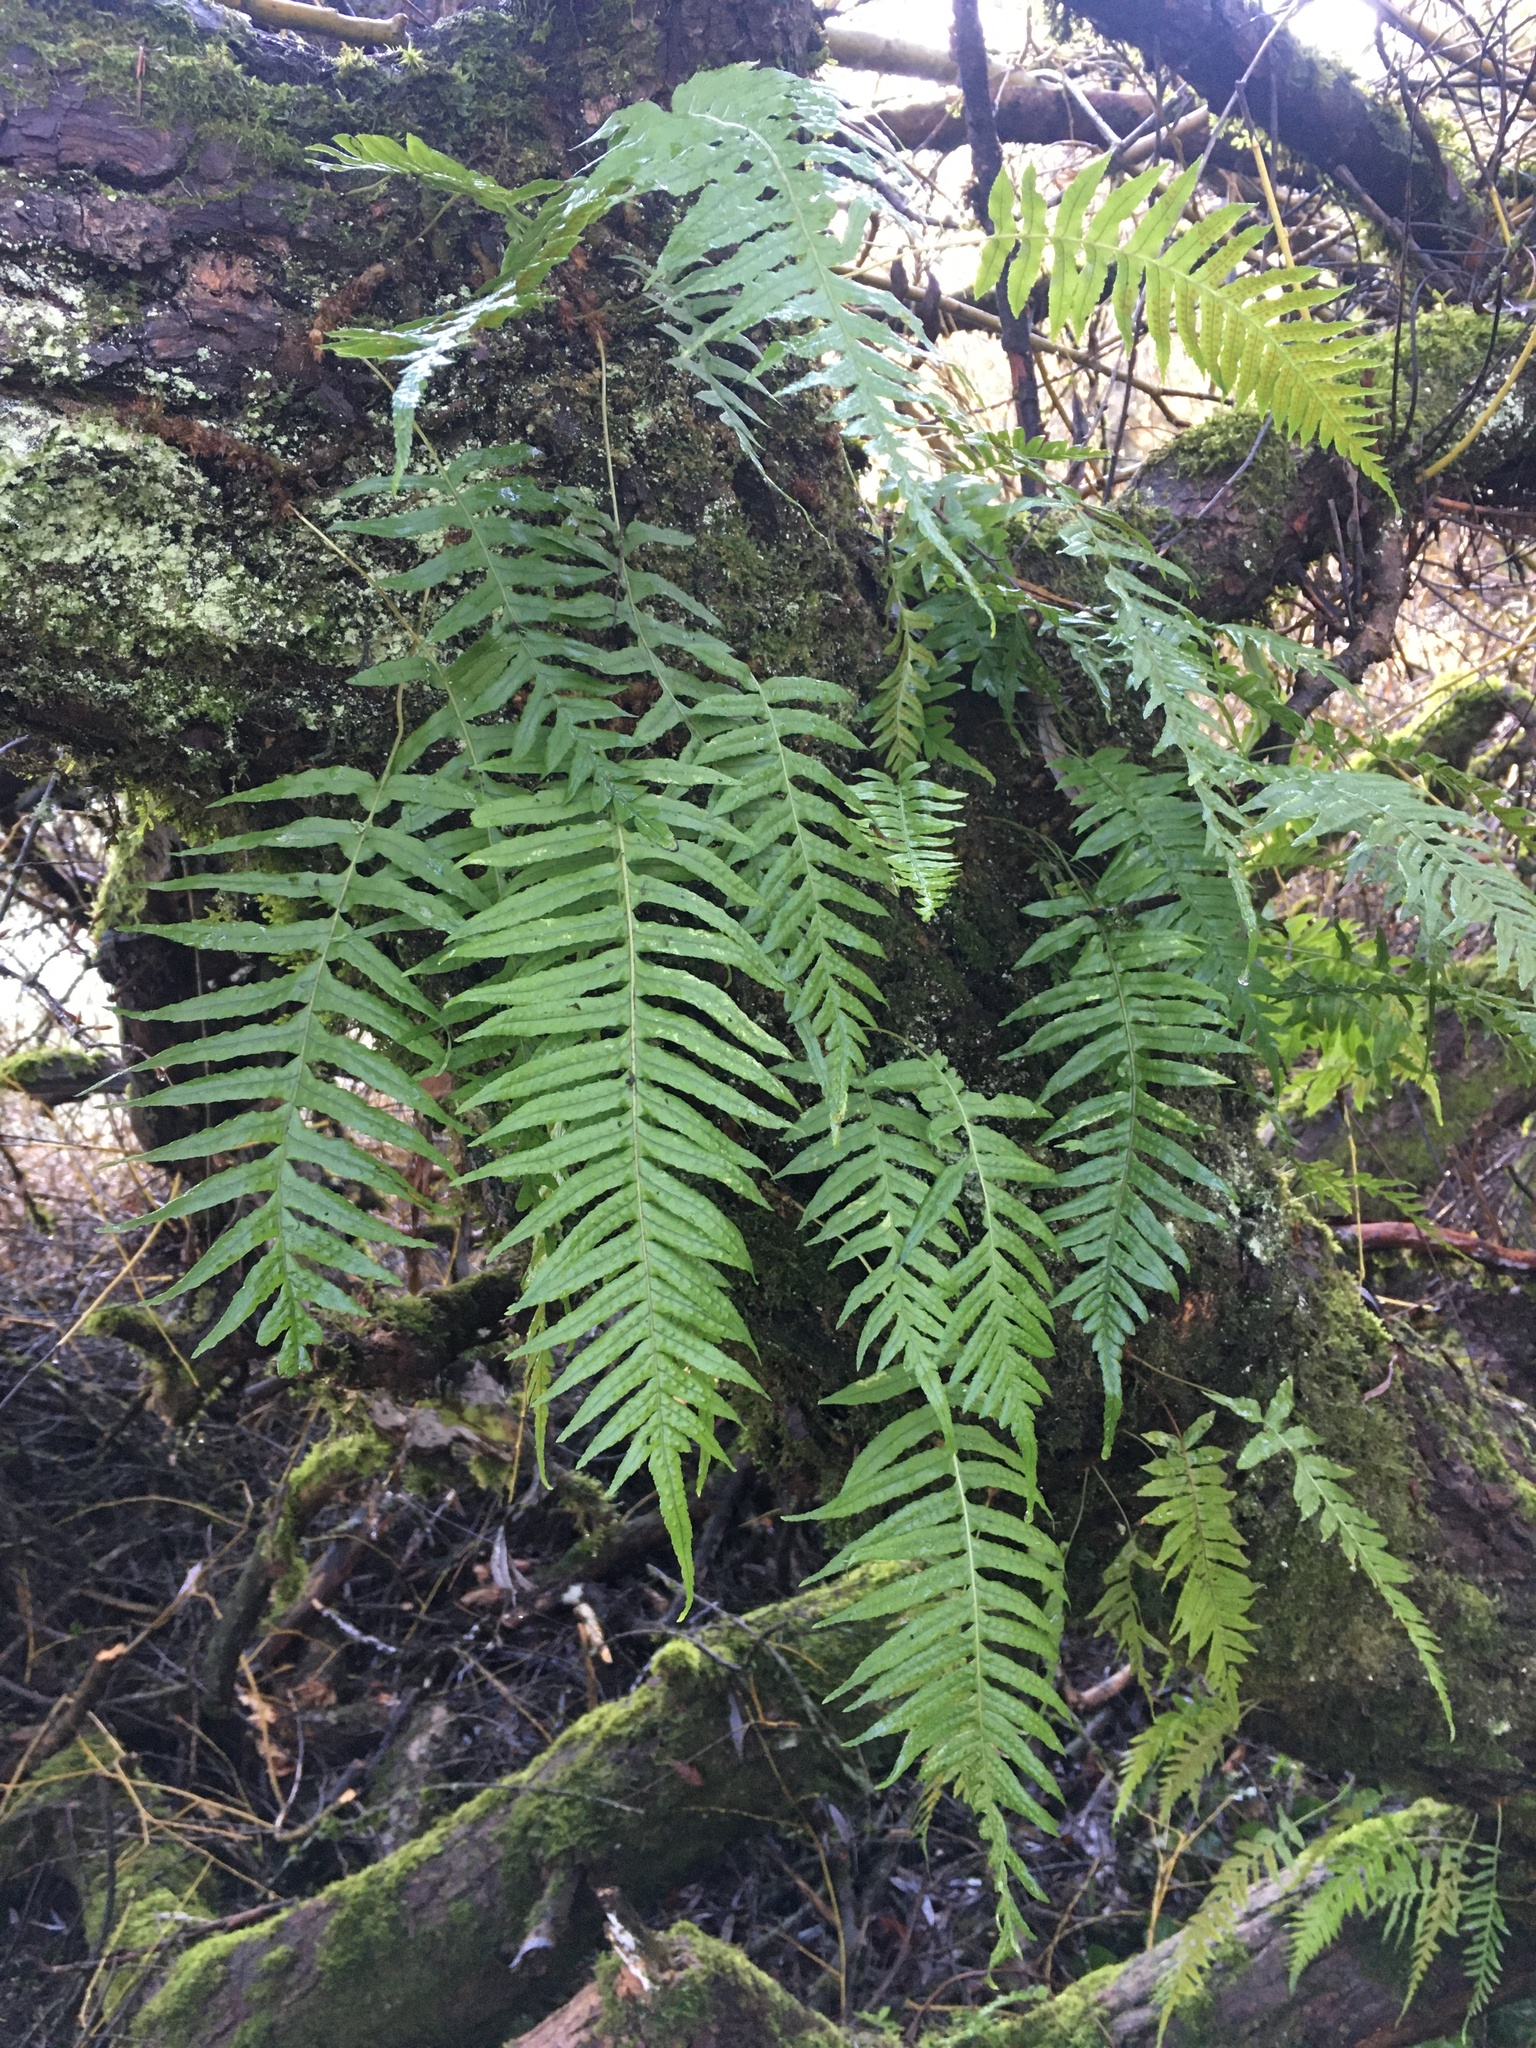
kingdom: Plantae
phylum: Tracheophyta
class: Polypodiopsida
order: Polypodiales
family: Polypodiaceae
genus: Polypodium
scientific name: Polypodium glycyrrhiza
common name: Licorice fern
